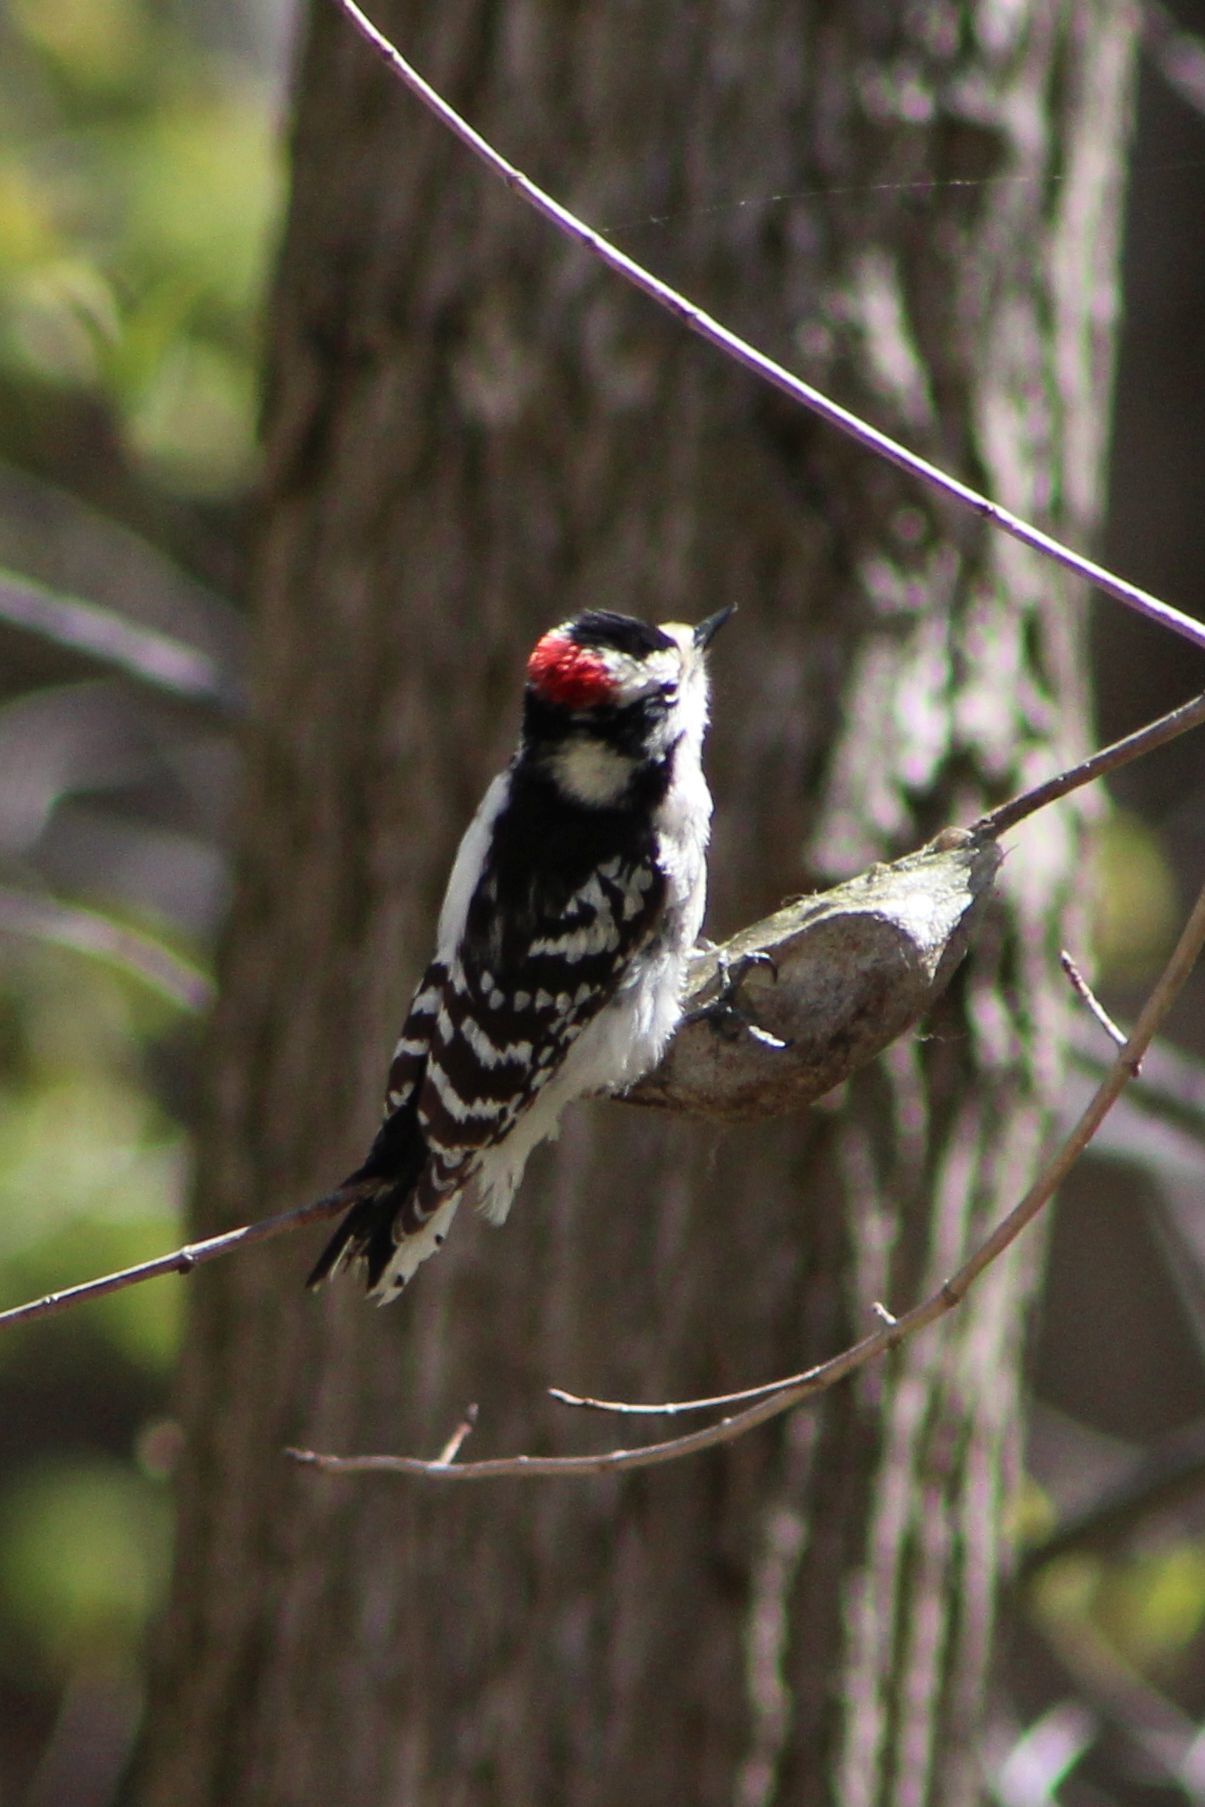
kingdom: Animalia
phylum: Chordata
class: Aves
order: Piciformes
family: Picidae
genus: Dryobates
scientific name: Dryobates pubescens
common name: Downy woodpecker
